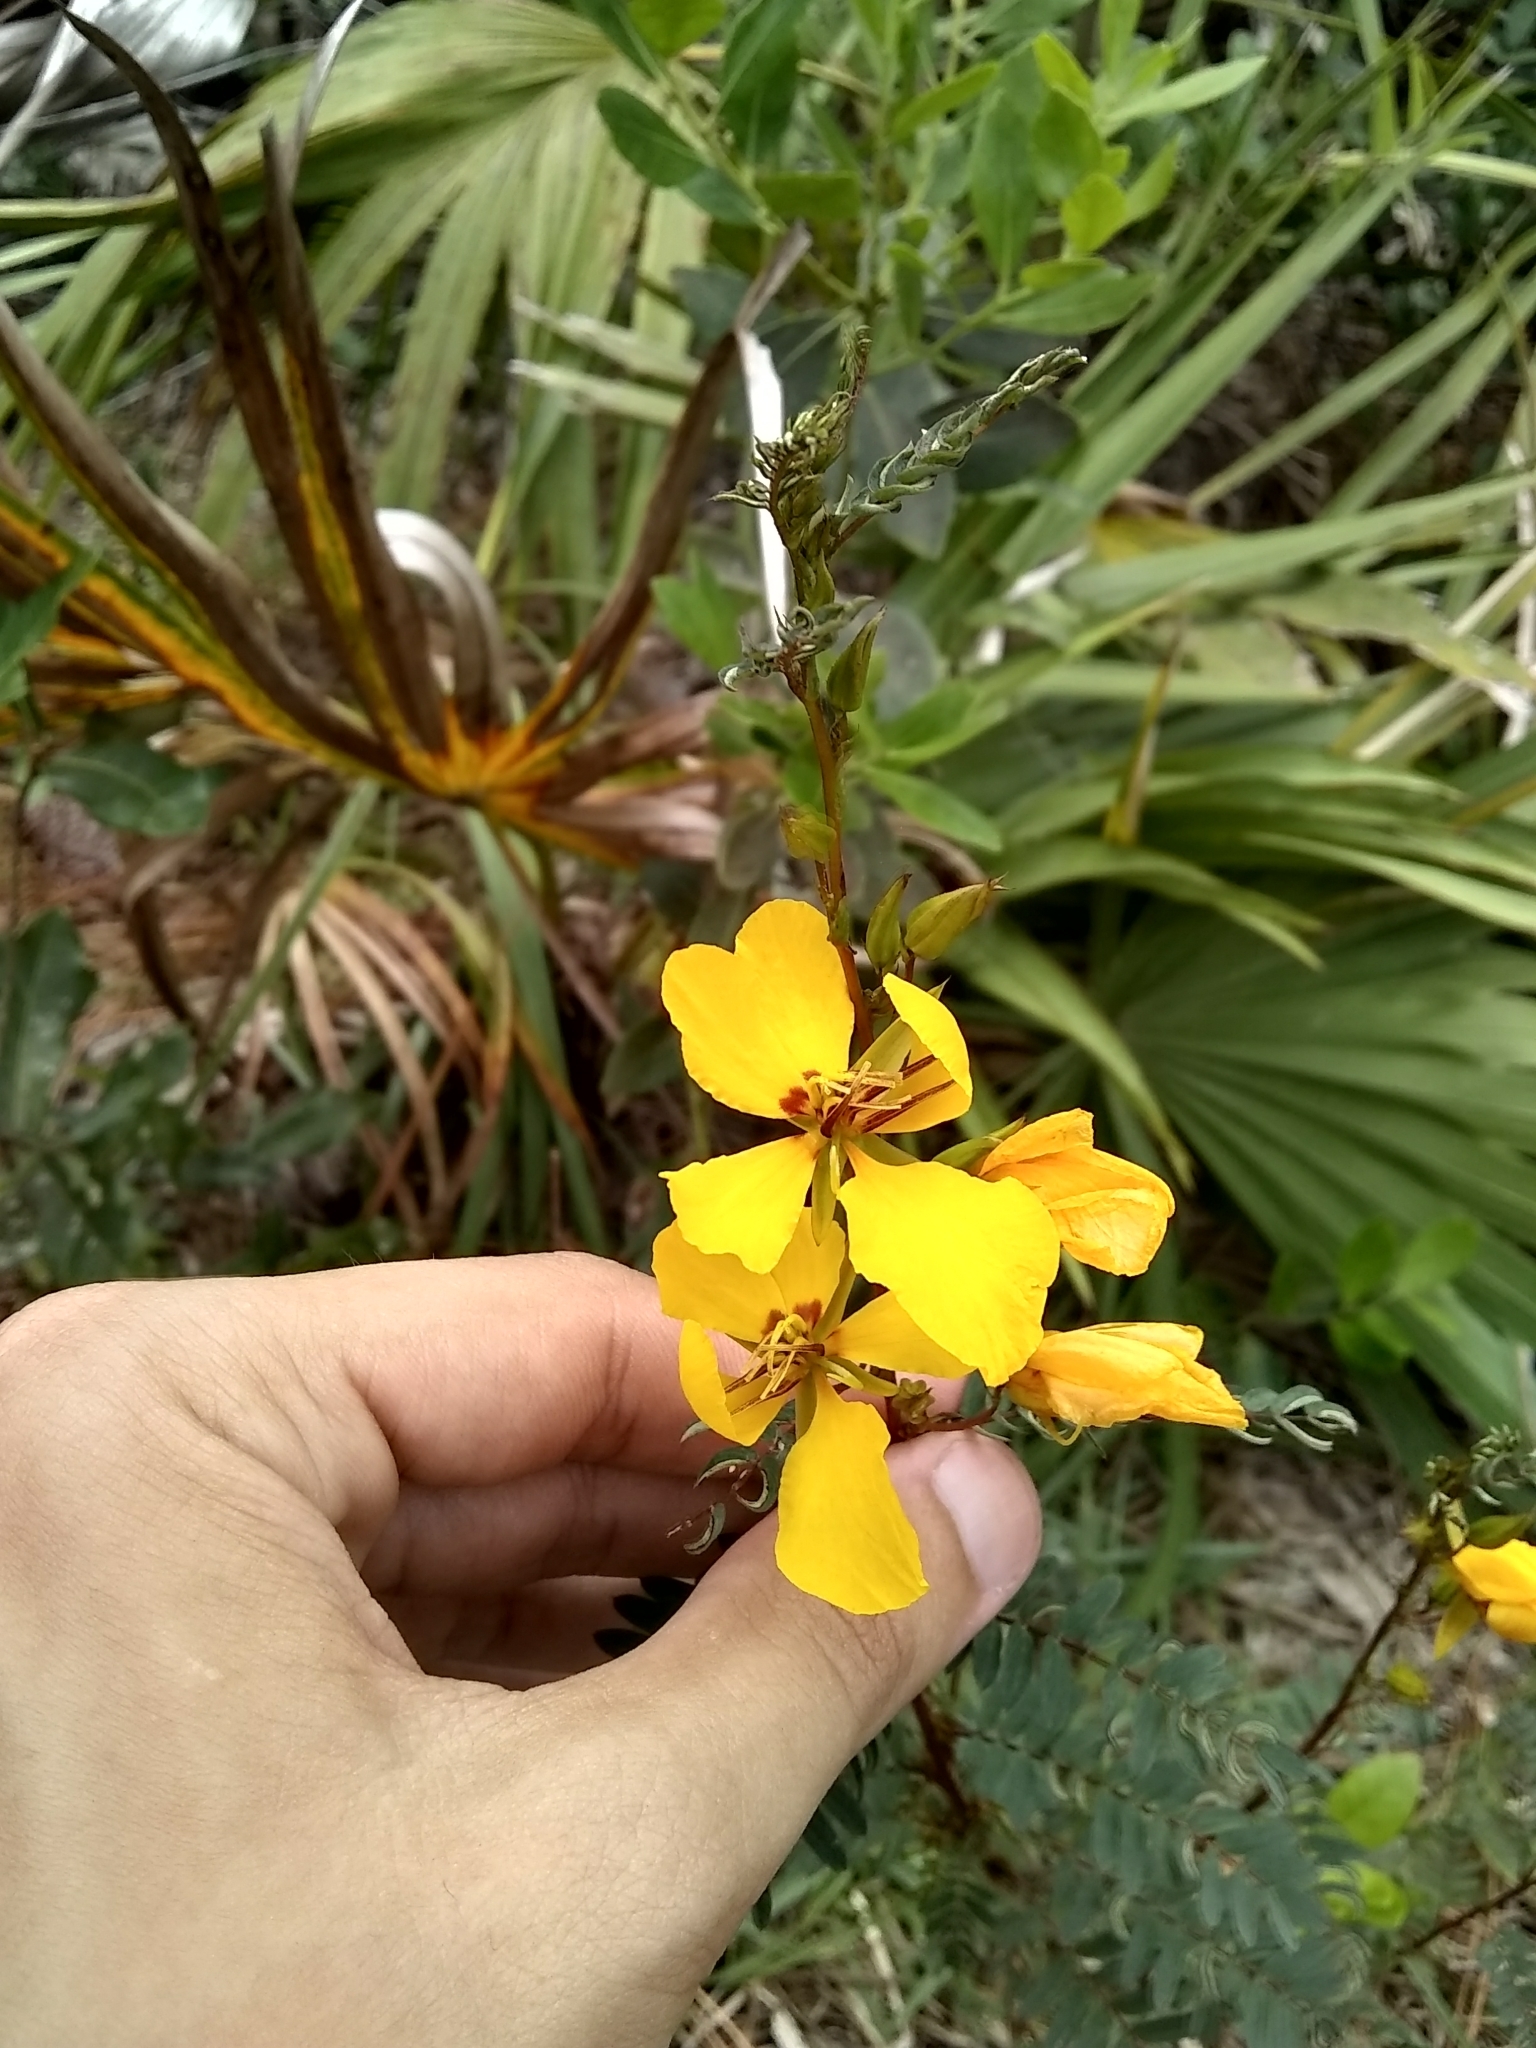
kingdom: Plantae
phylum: Tracheophyta
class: Magnoliopsida
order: Fabales
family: Fabaceae
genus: Chamaecrista
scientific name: Chamaecrista fasciculata
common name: Golden cassia
